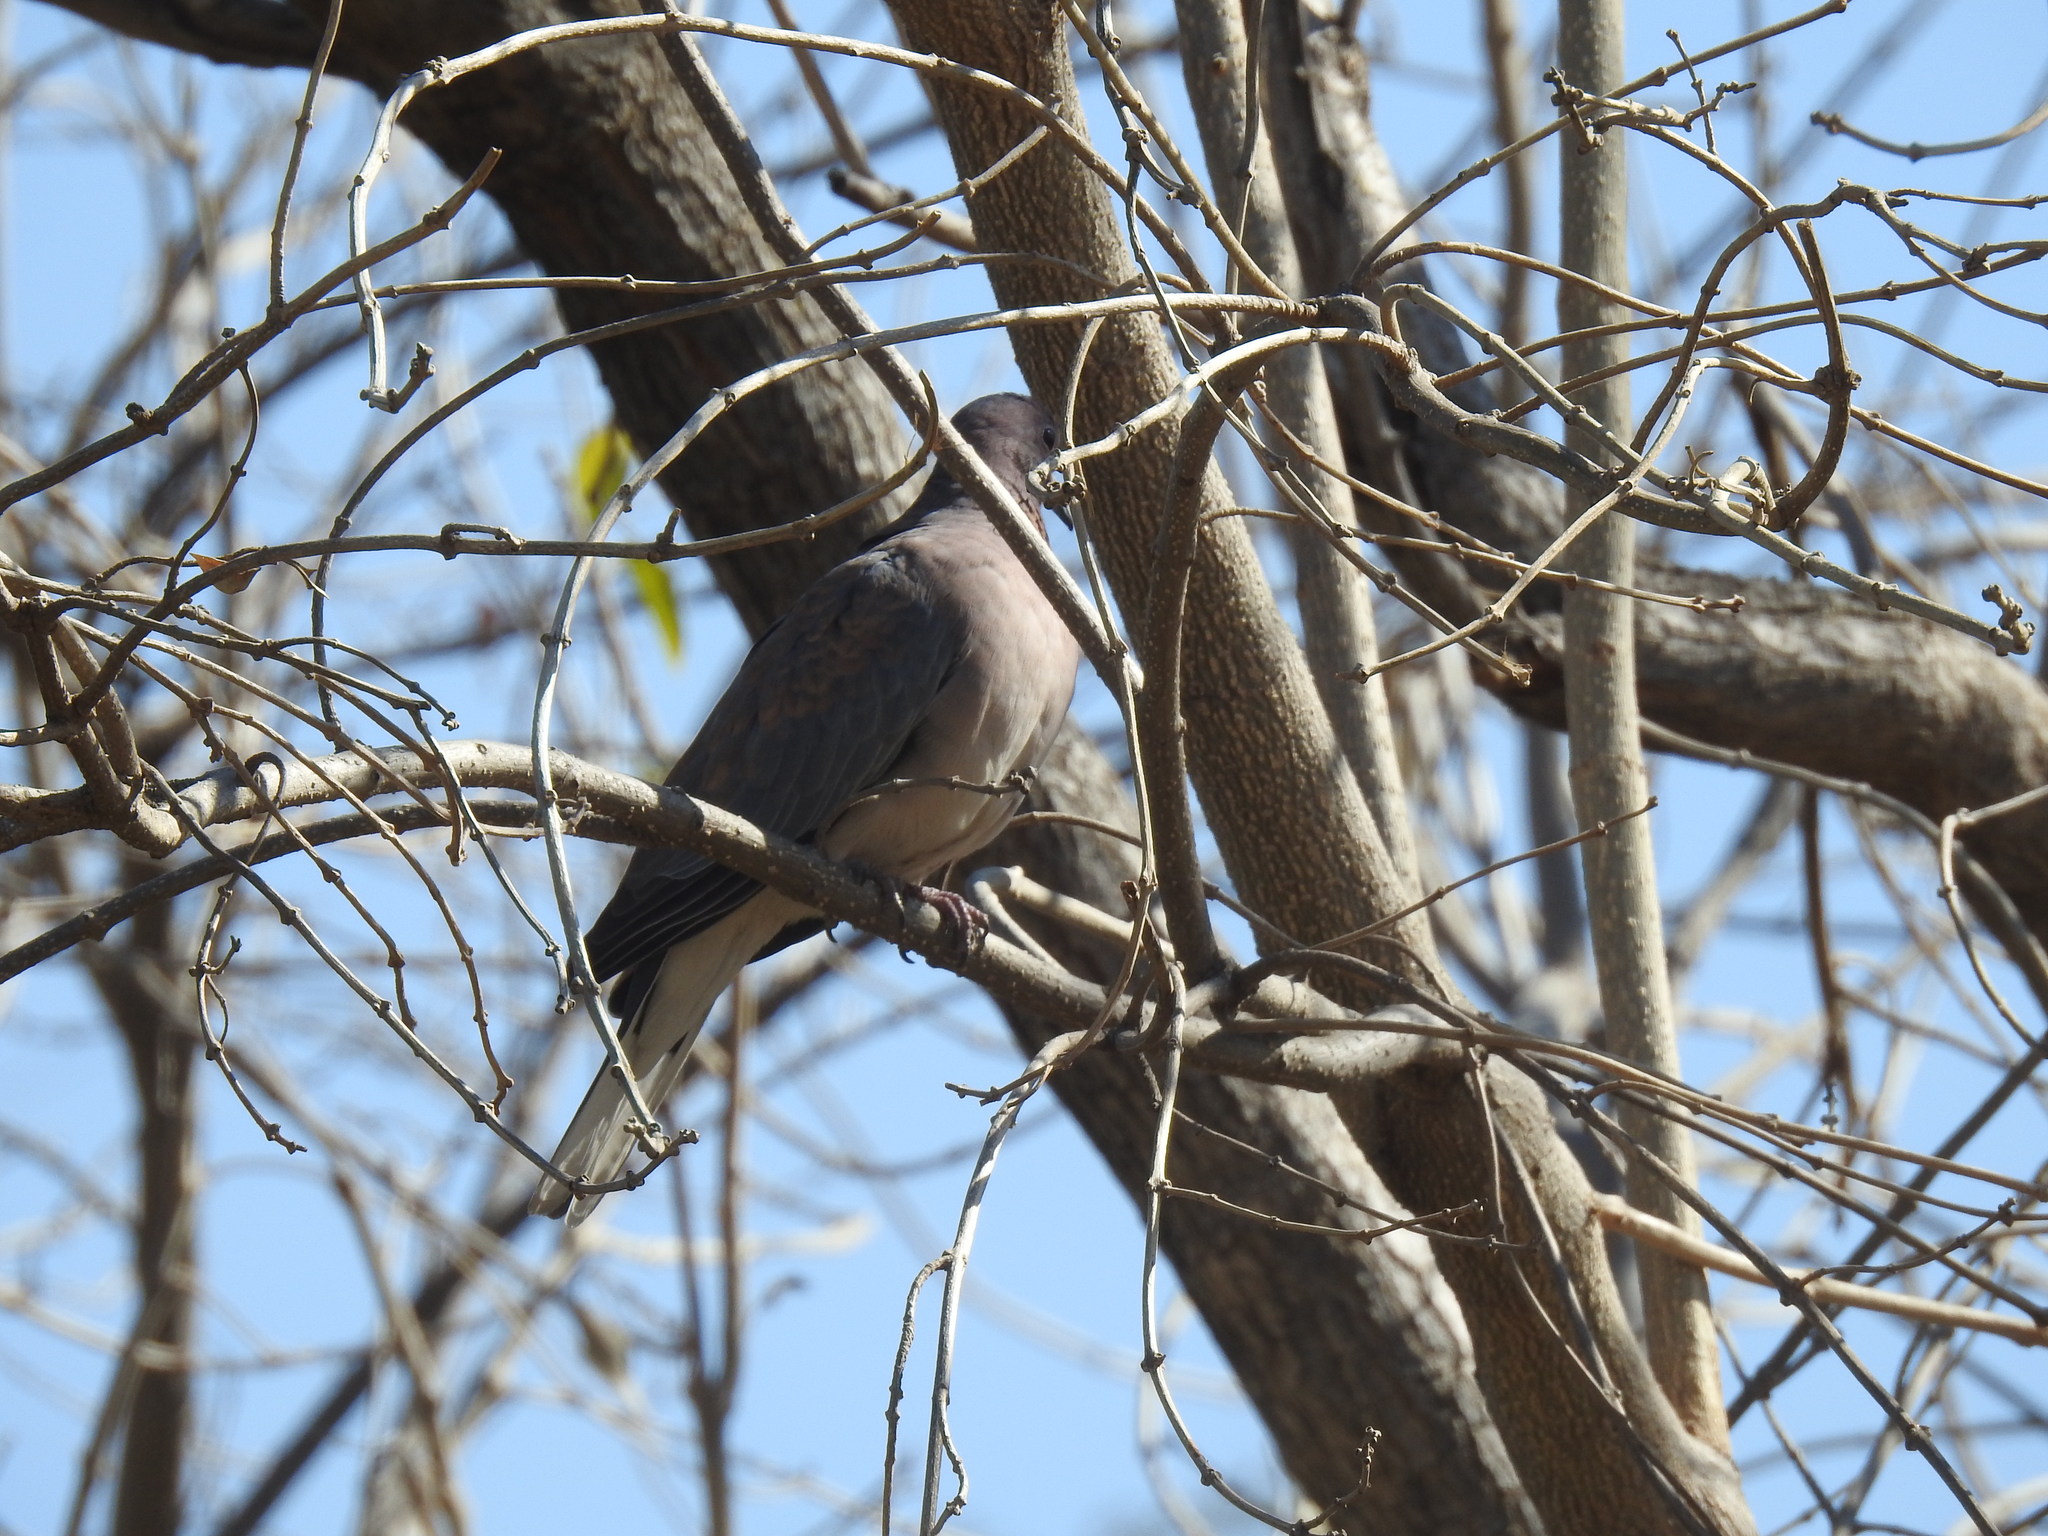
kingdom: Animalia
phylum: Chordata
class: Aves
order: Columbiformes
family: Columbidae
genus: Spilopelia
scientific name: Spilopelia senegalensis
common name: Laughing dove
